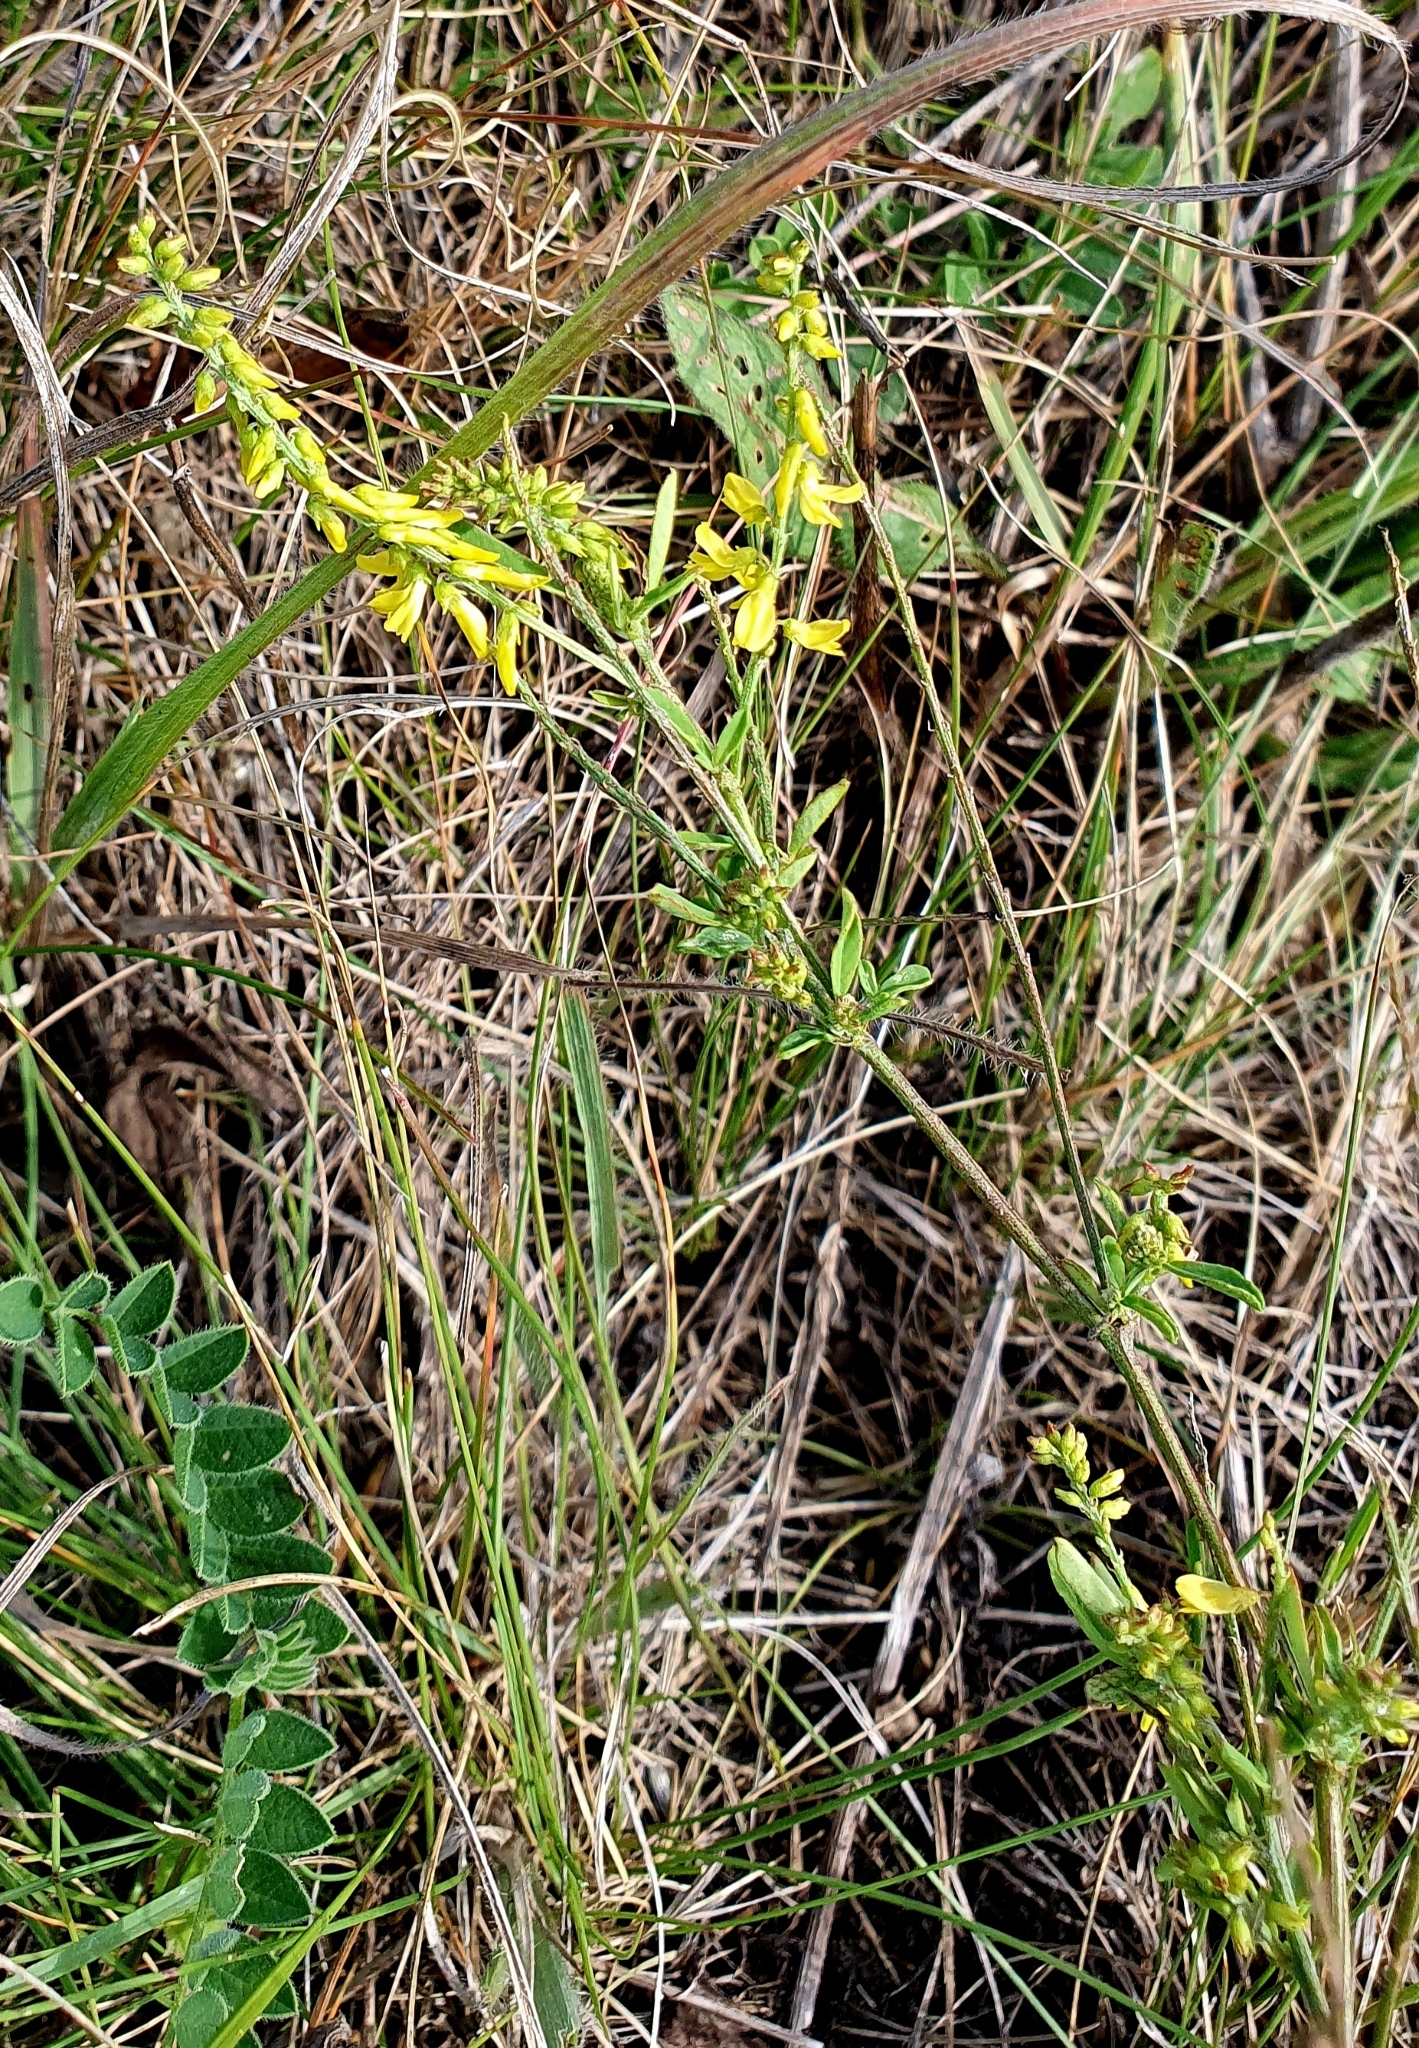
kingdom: Plantae
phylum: Tracheophyta
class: Magnoliopsida
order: Fabales
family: Fabaceae
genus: Melilotus
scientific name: Melilotus officinalis
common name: Sweetclover
